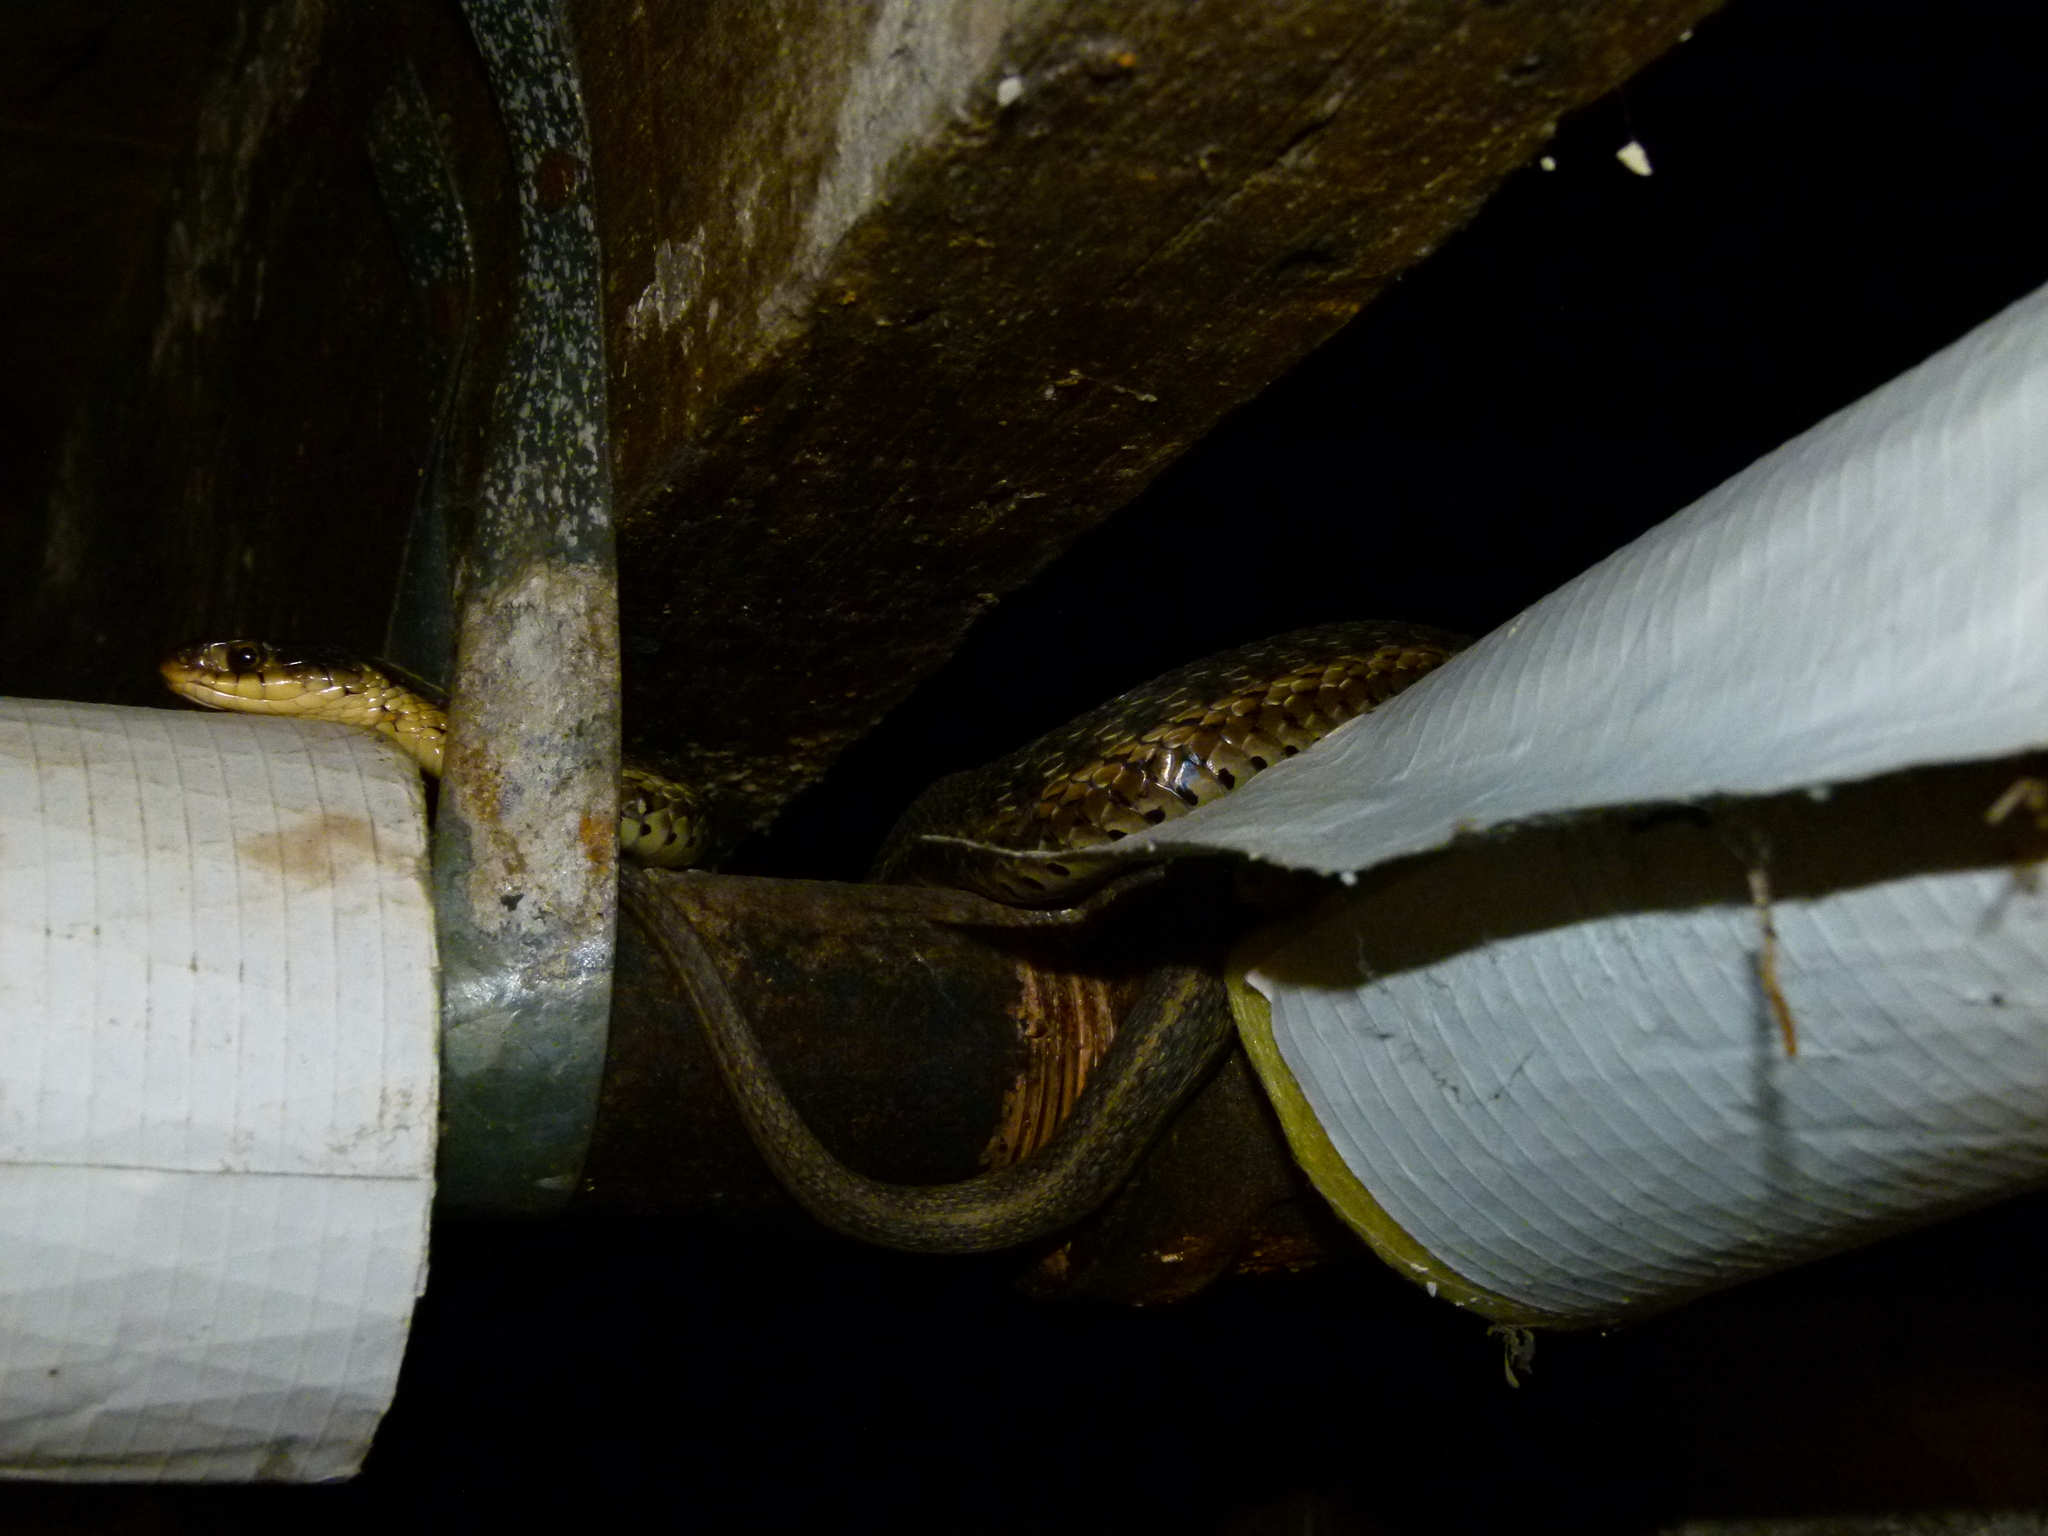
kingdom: Animalia
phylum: Chordata
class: Squamata
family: Colubridae
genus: Thamnophis
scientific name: Thamnophis sirtalis
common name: Common garter snake
